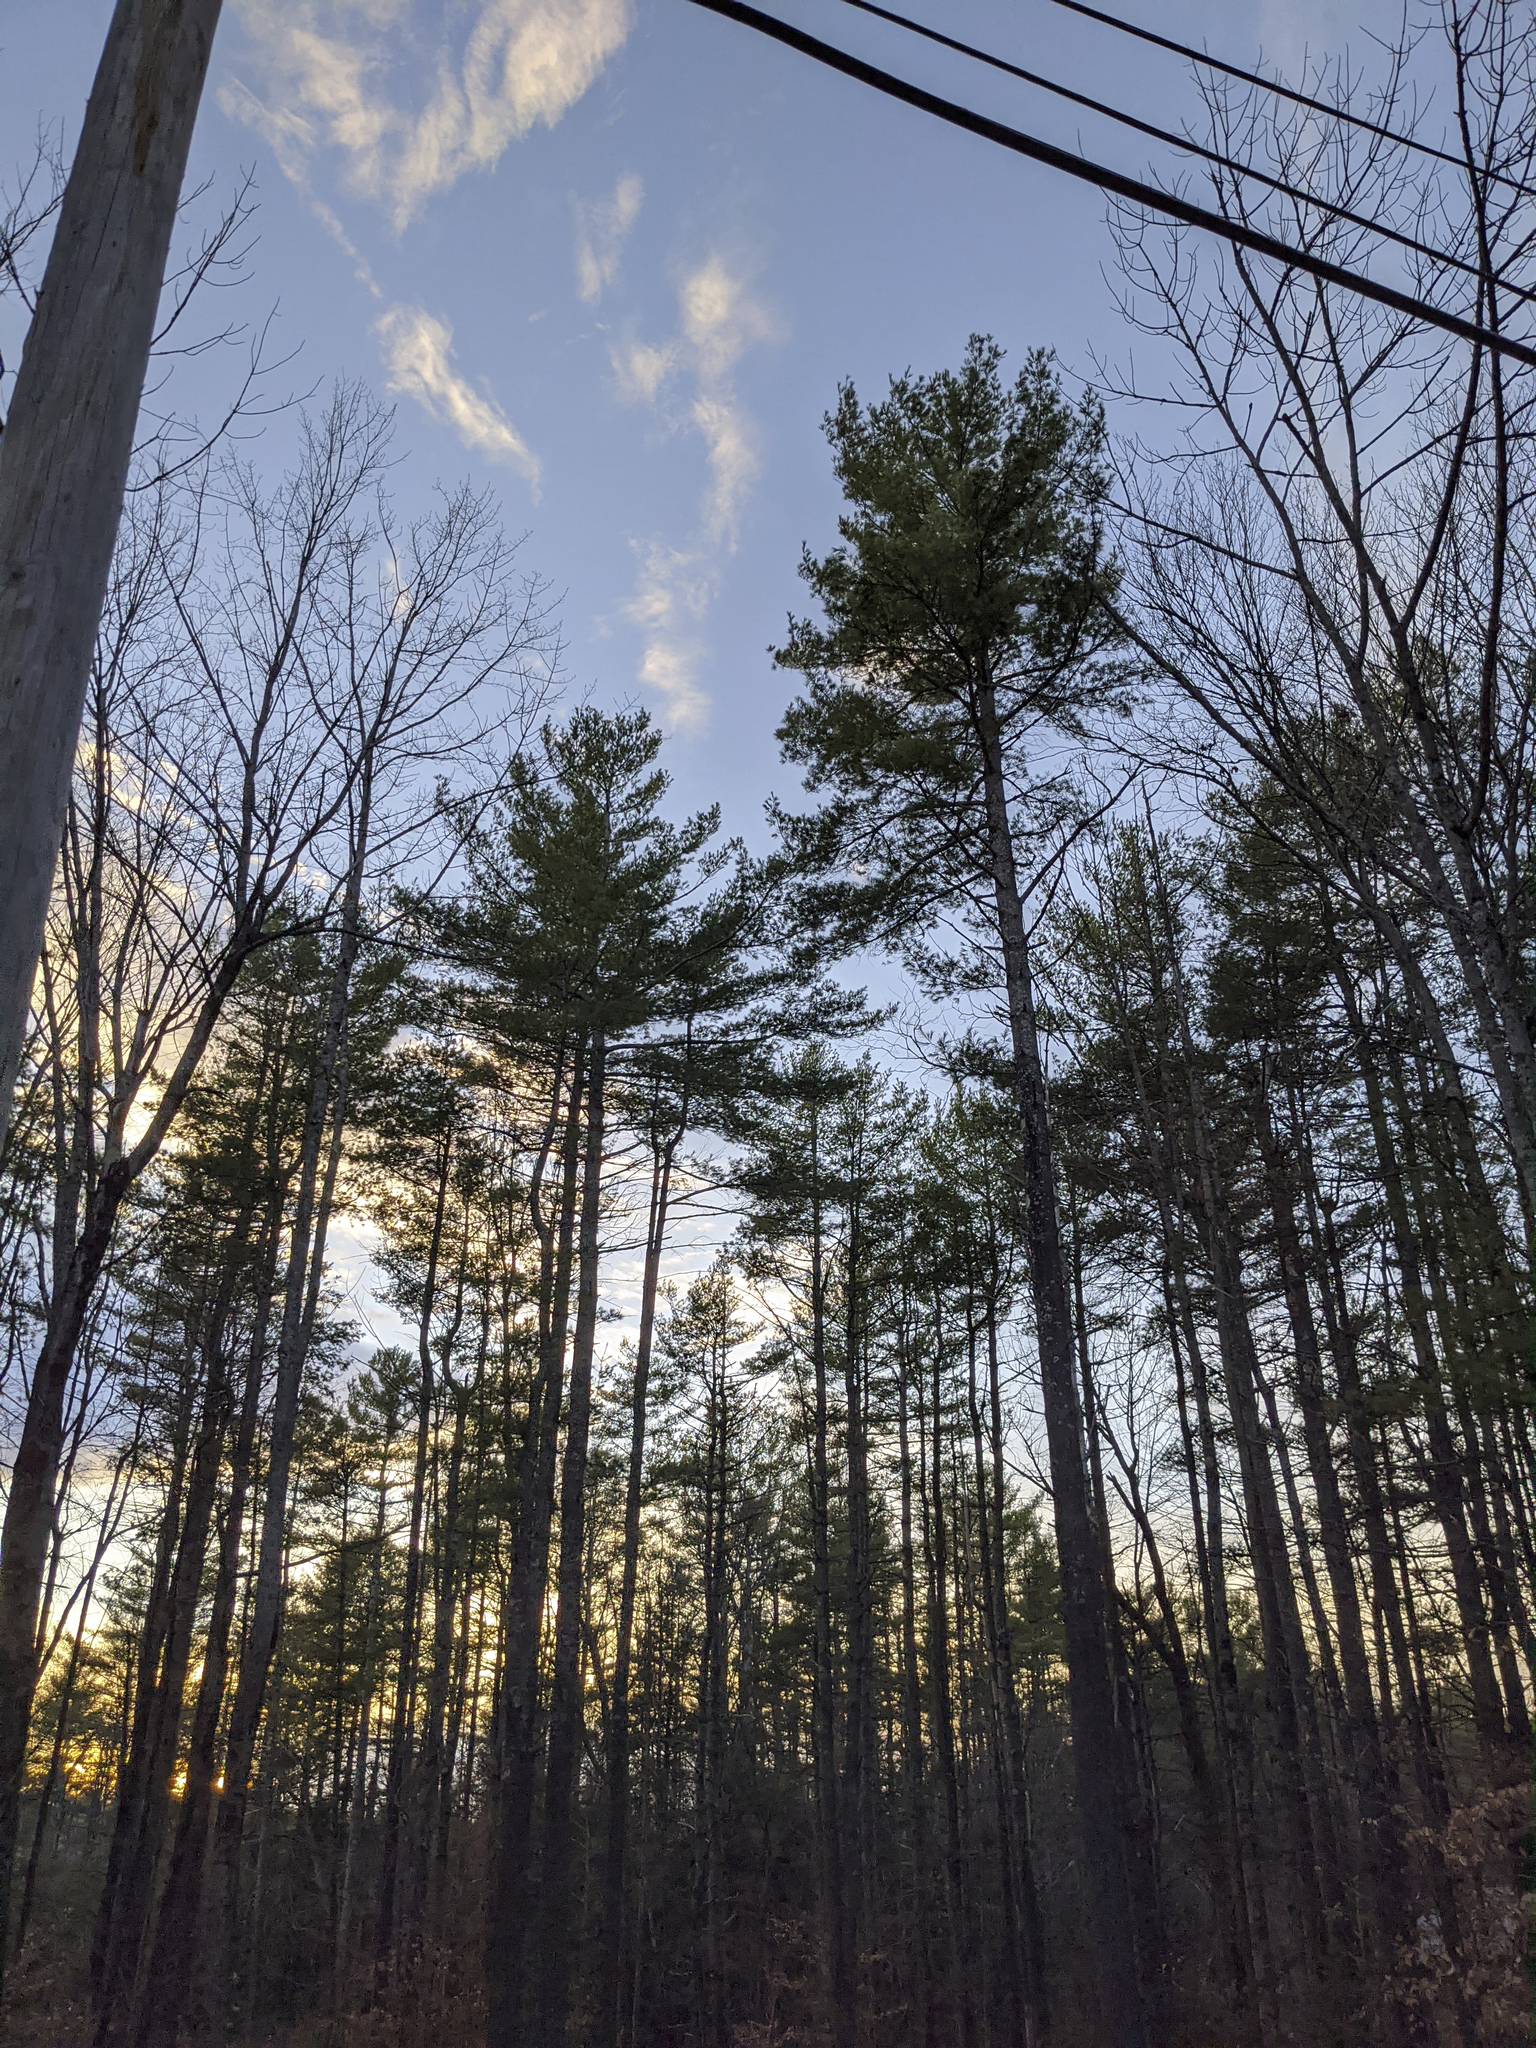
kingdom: Plantae
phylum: Tracheophyta
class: Pinopsida
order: Pinales
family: Pinaceae
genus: Pinus
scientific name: Pinus strobus
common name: Weymouth pine
